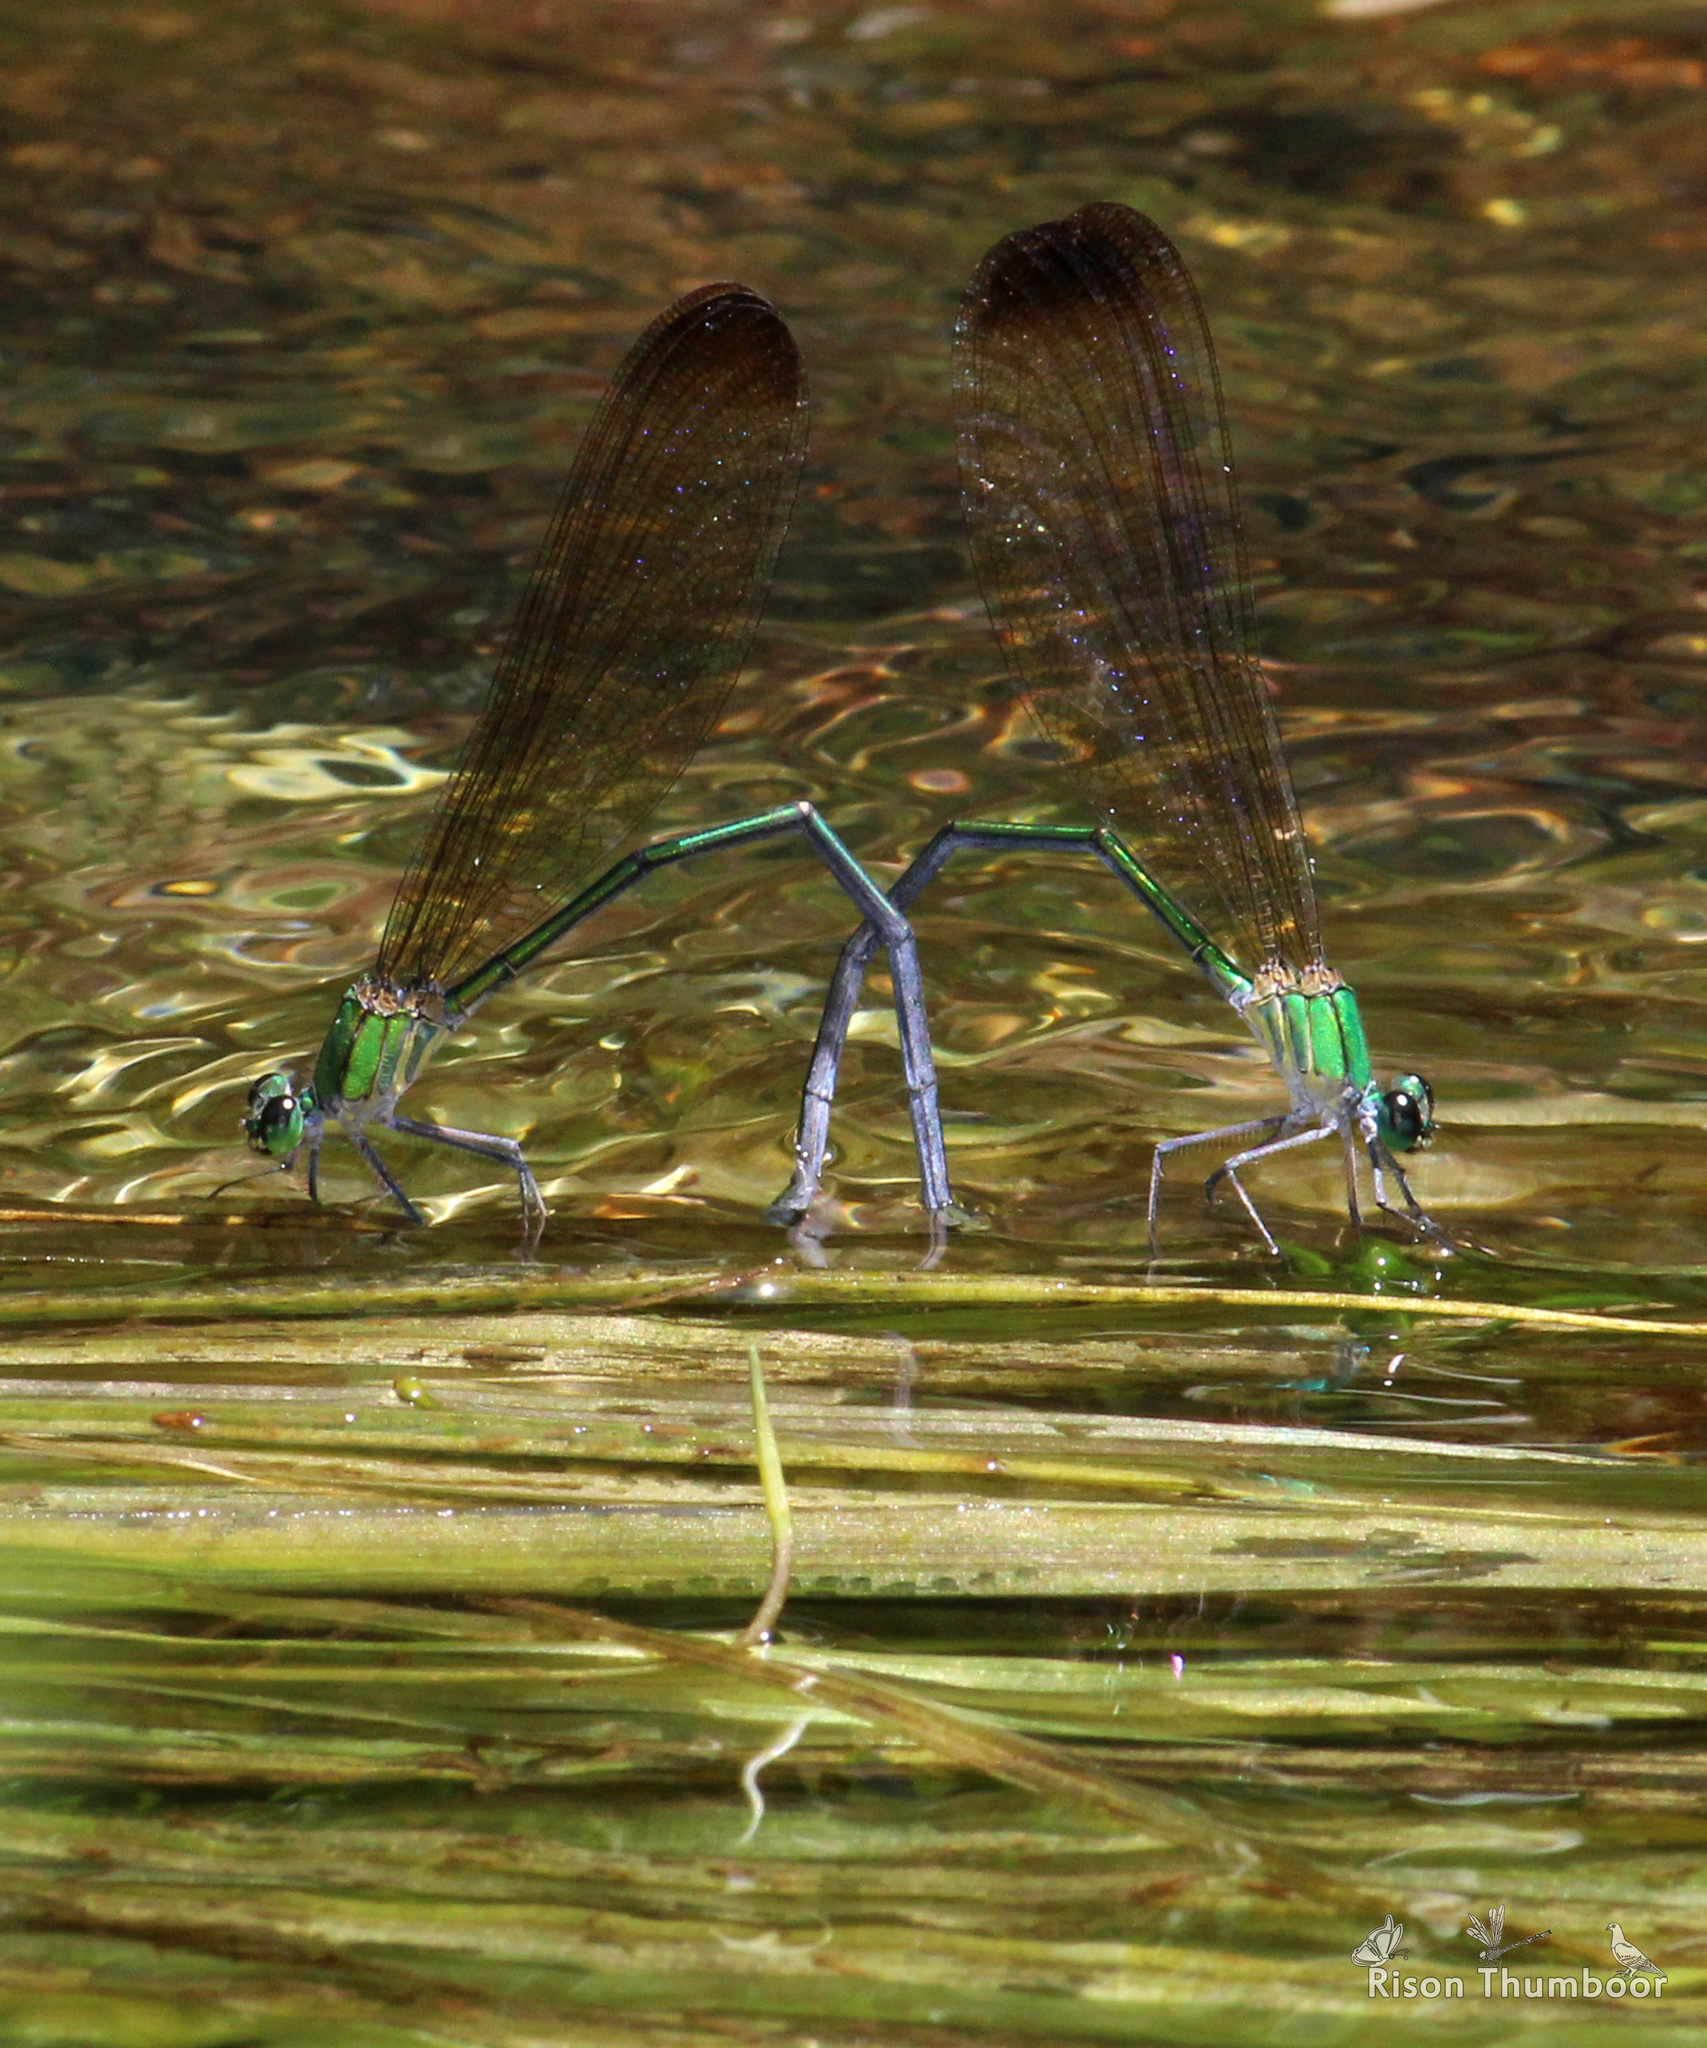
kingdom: Animalia
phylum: Arthropoda
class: Insecta
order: Odonata
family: Calopterygidae
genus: Vestalis
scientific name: Vestalis apicalis
